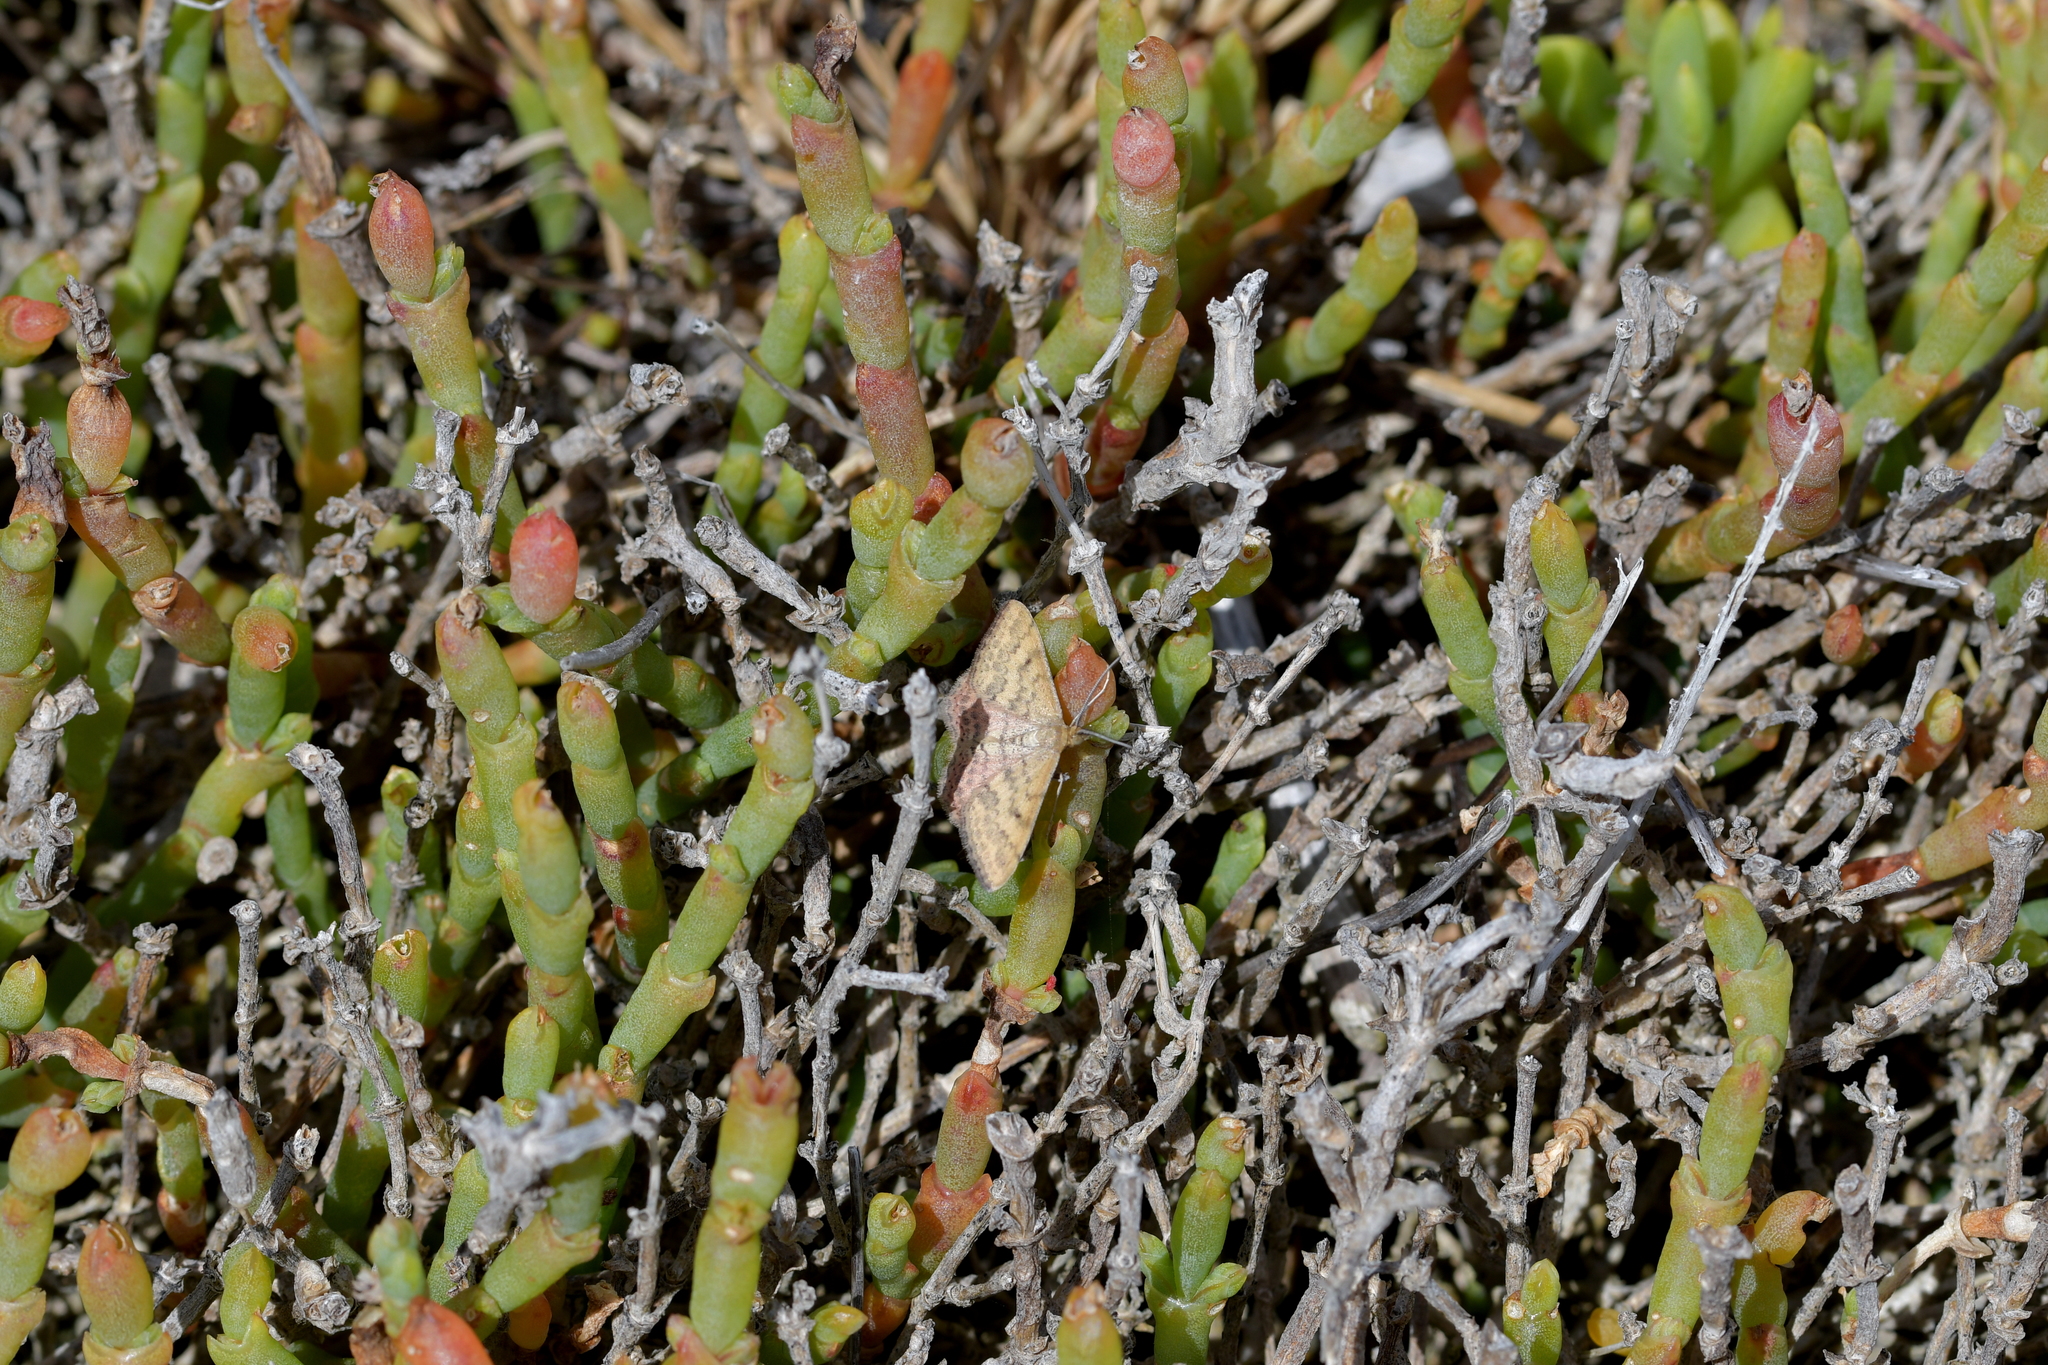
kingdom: Animalia
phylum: Arthropoda
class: Insecta
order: Lepidoptera
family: Geometridae
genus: Scopula
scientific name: Scopula rubraria
